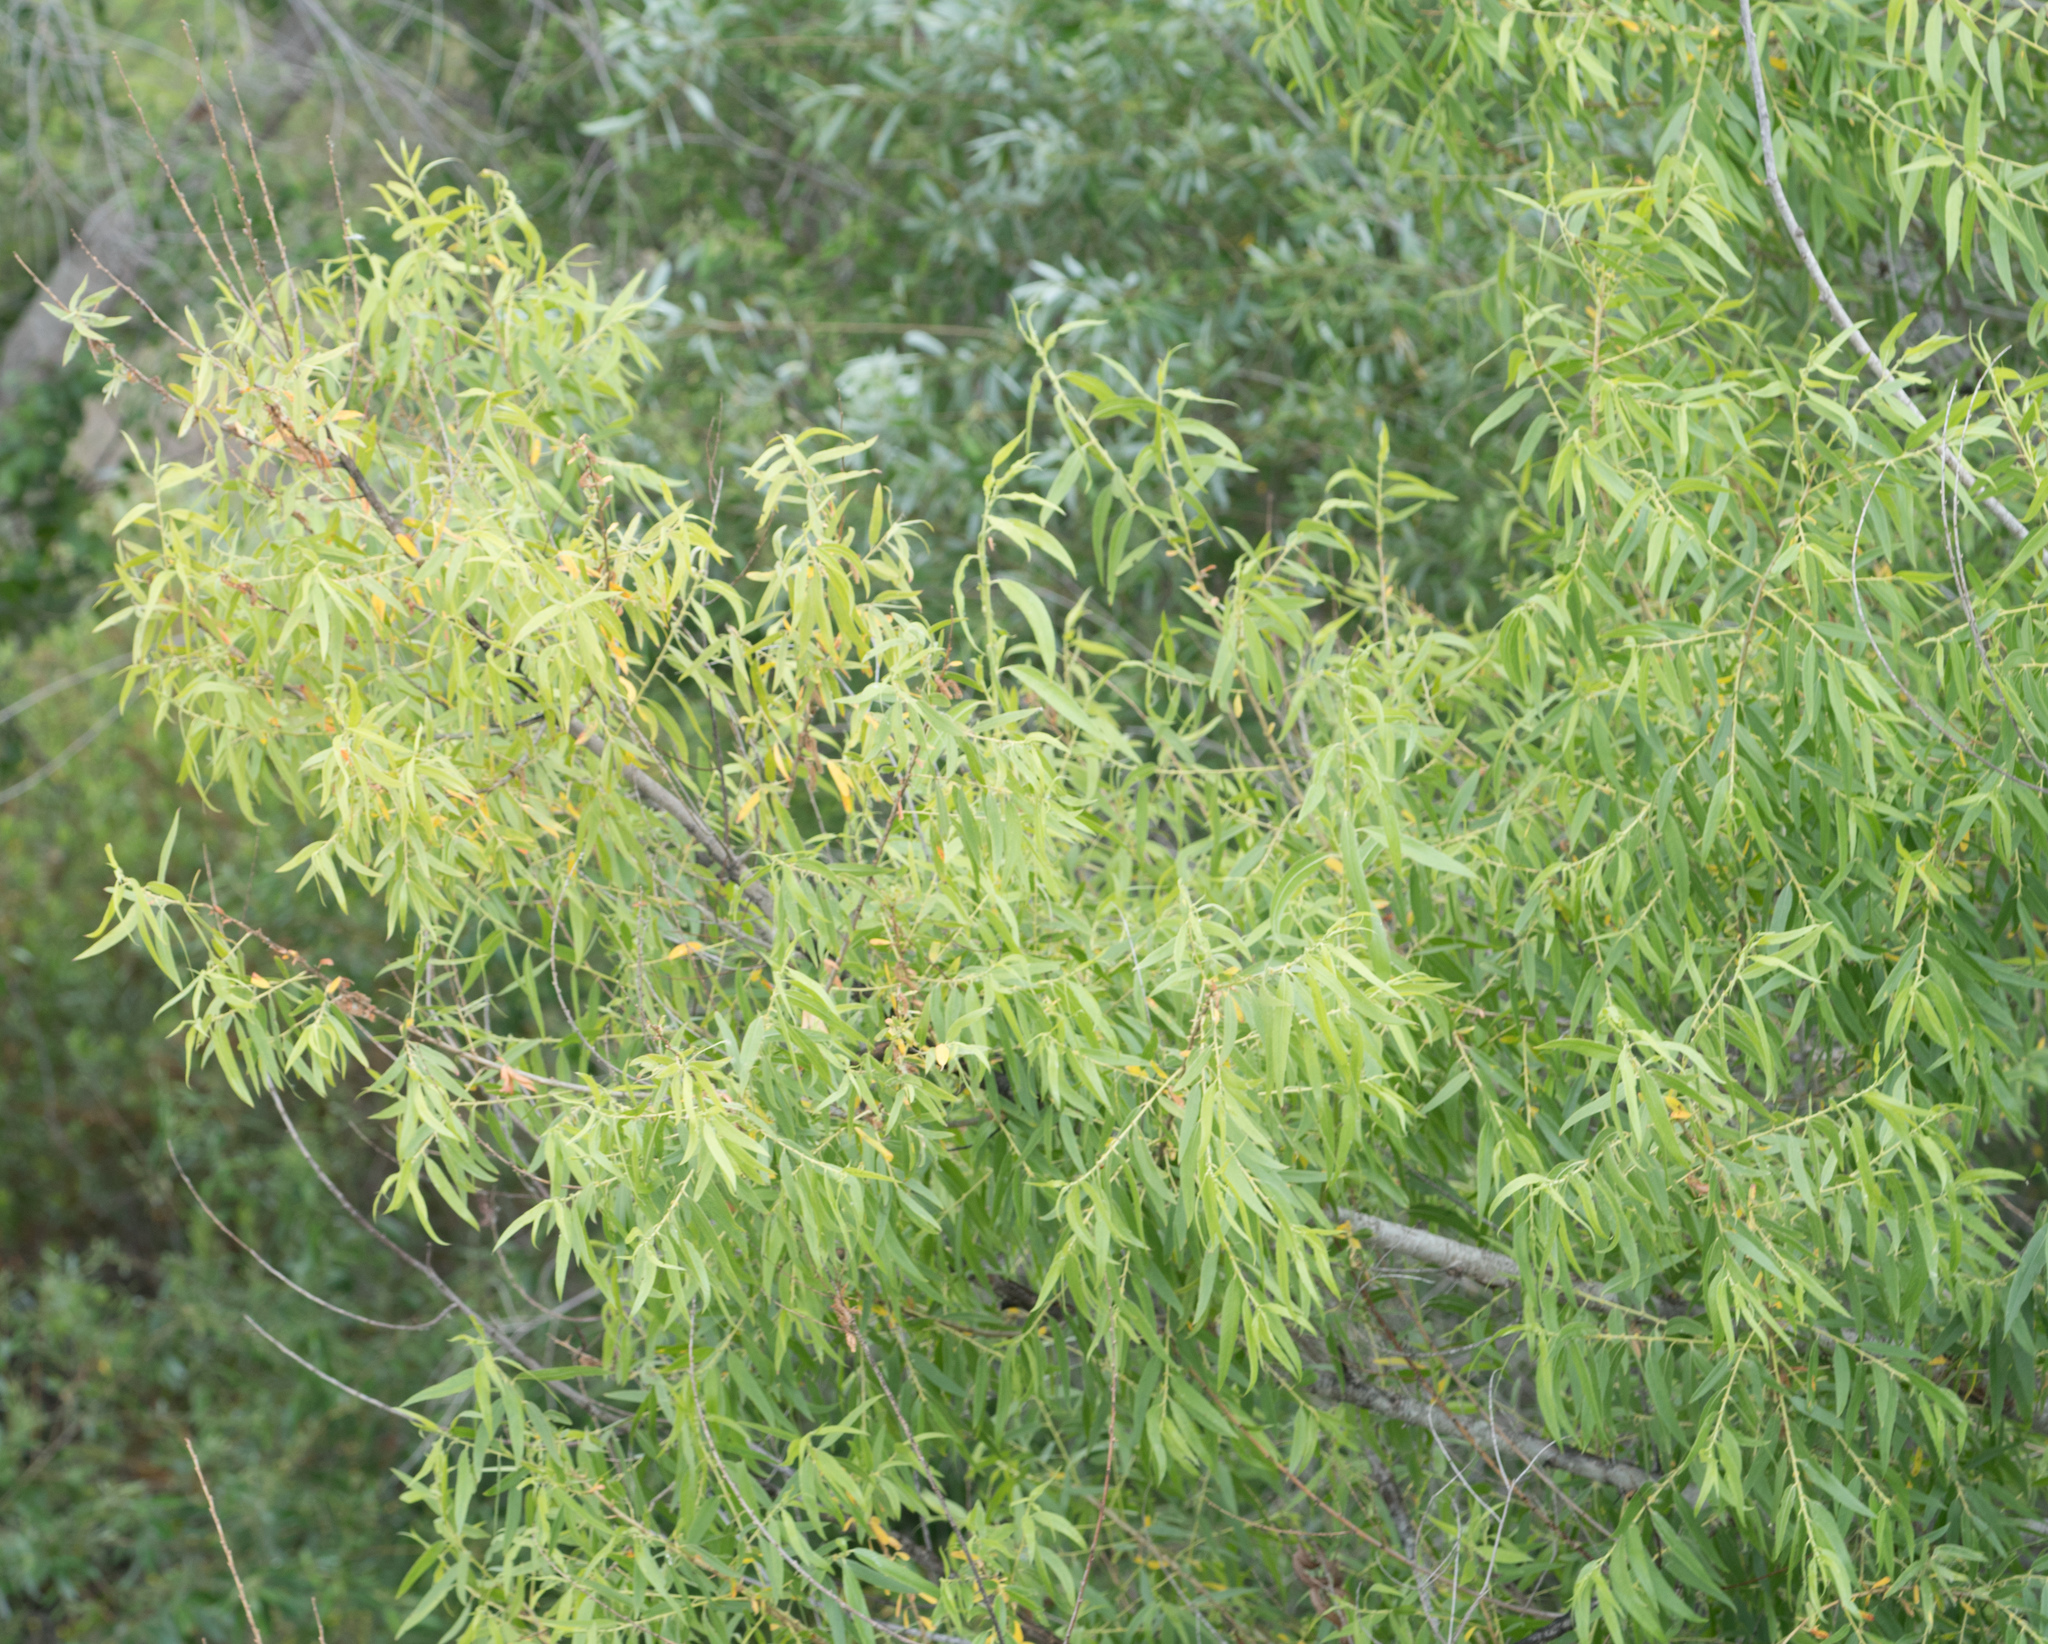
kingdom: Plantae
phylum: Tracheophyta
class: Magnoliopsida
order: Malpighiales
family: Salicaceae
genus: Salix
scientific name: Salix gooddingii
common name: Goodding's willow
